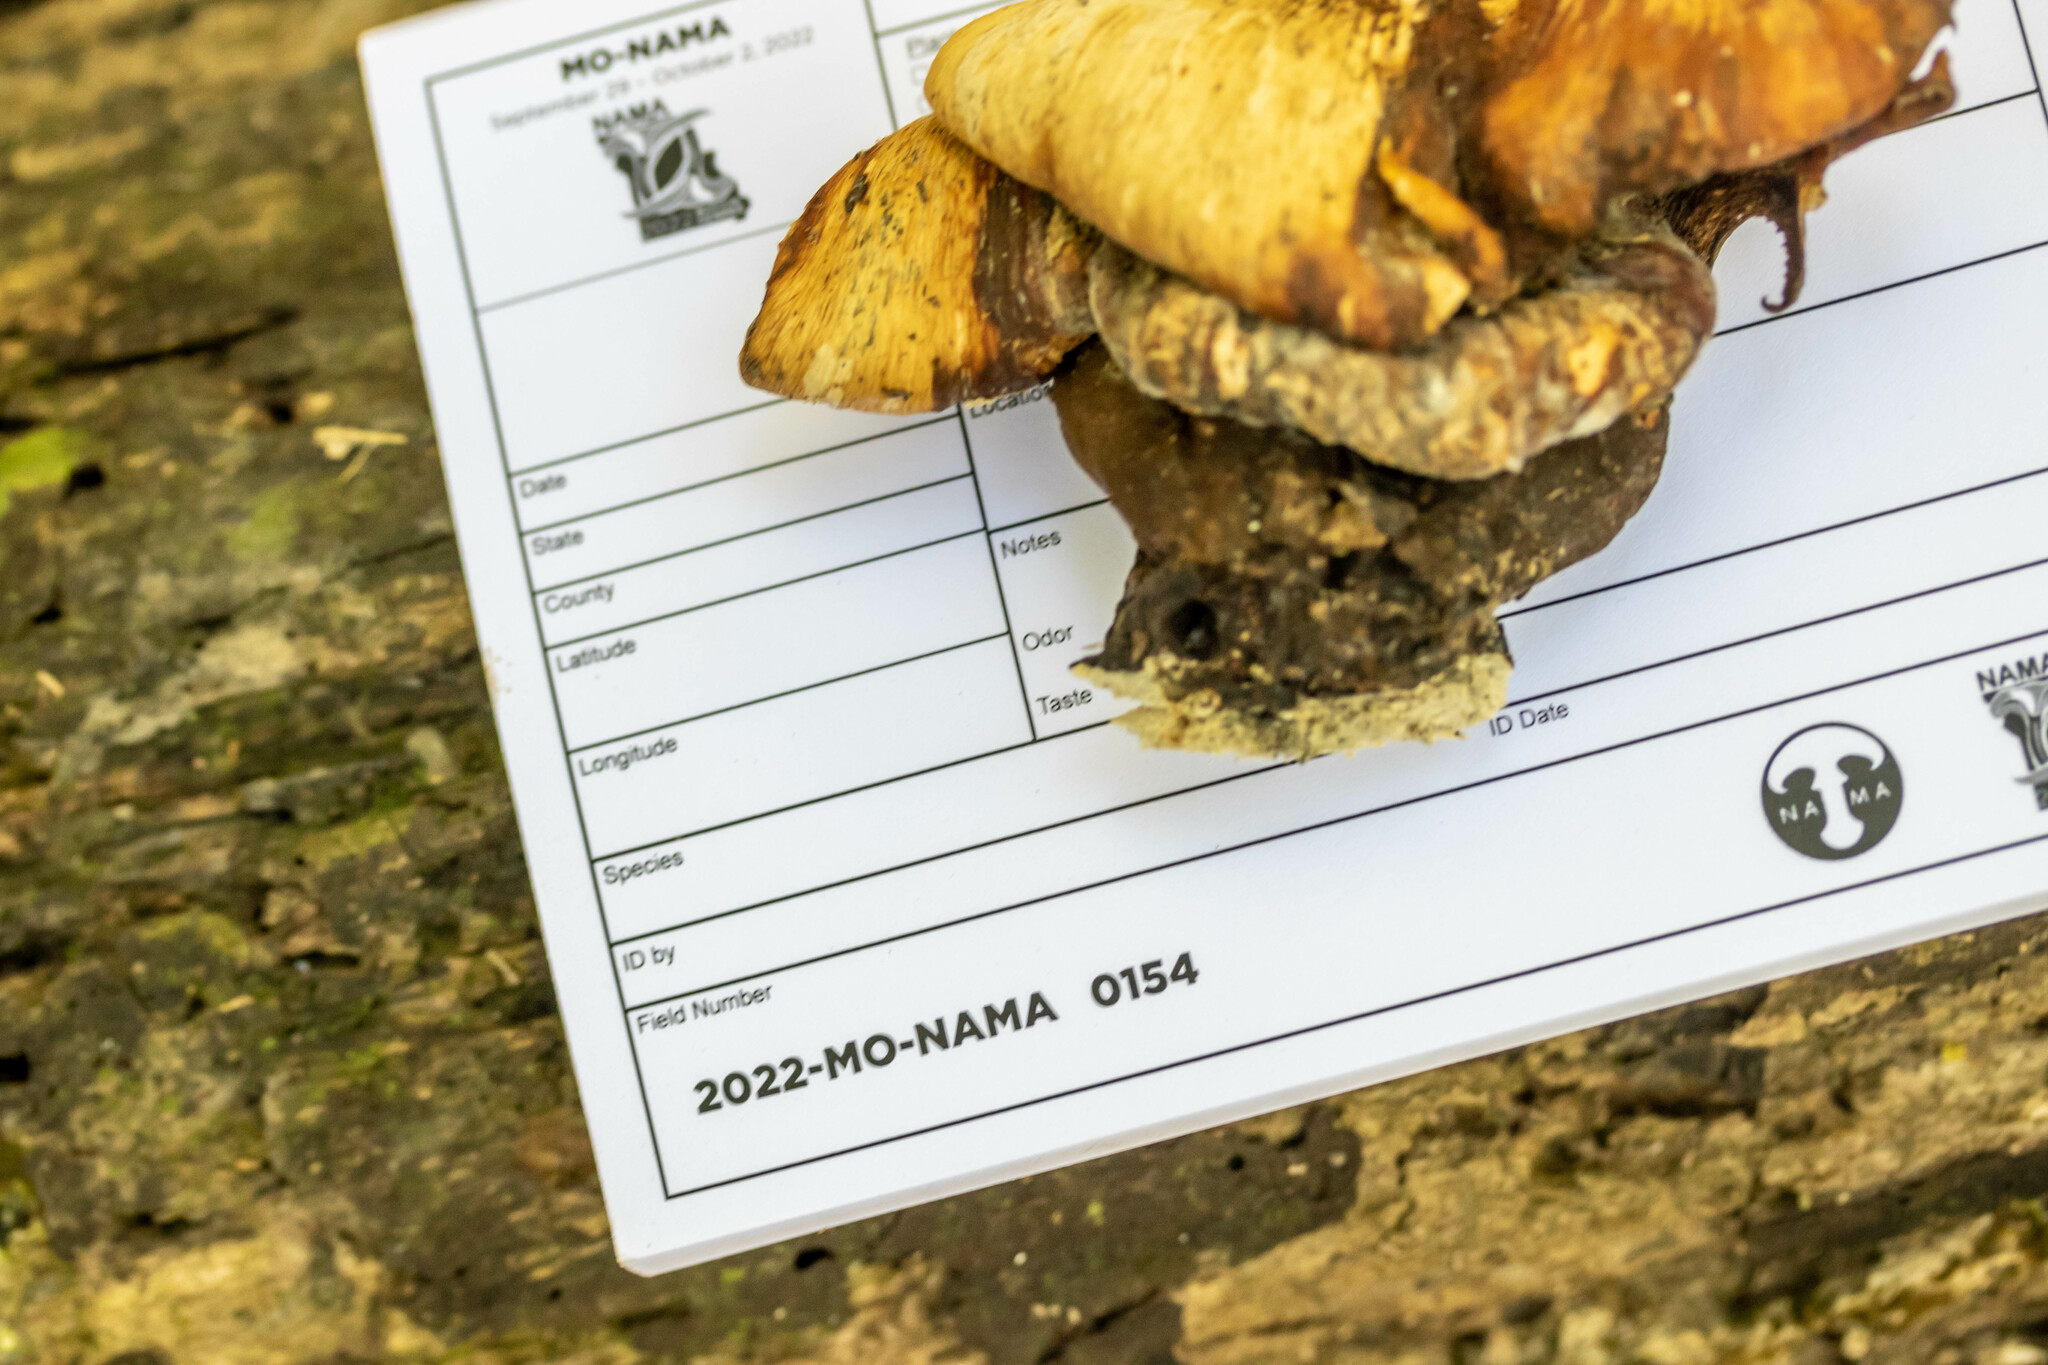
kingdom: Fungi
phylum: Basidiomycota
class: Agaricomycetes
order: Polyporales
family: Polyporaceae
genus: Cerioporus
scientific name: Cerioporus squamosus
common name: Dryad's saddle
